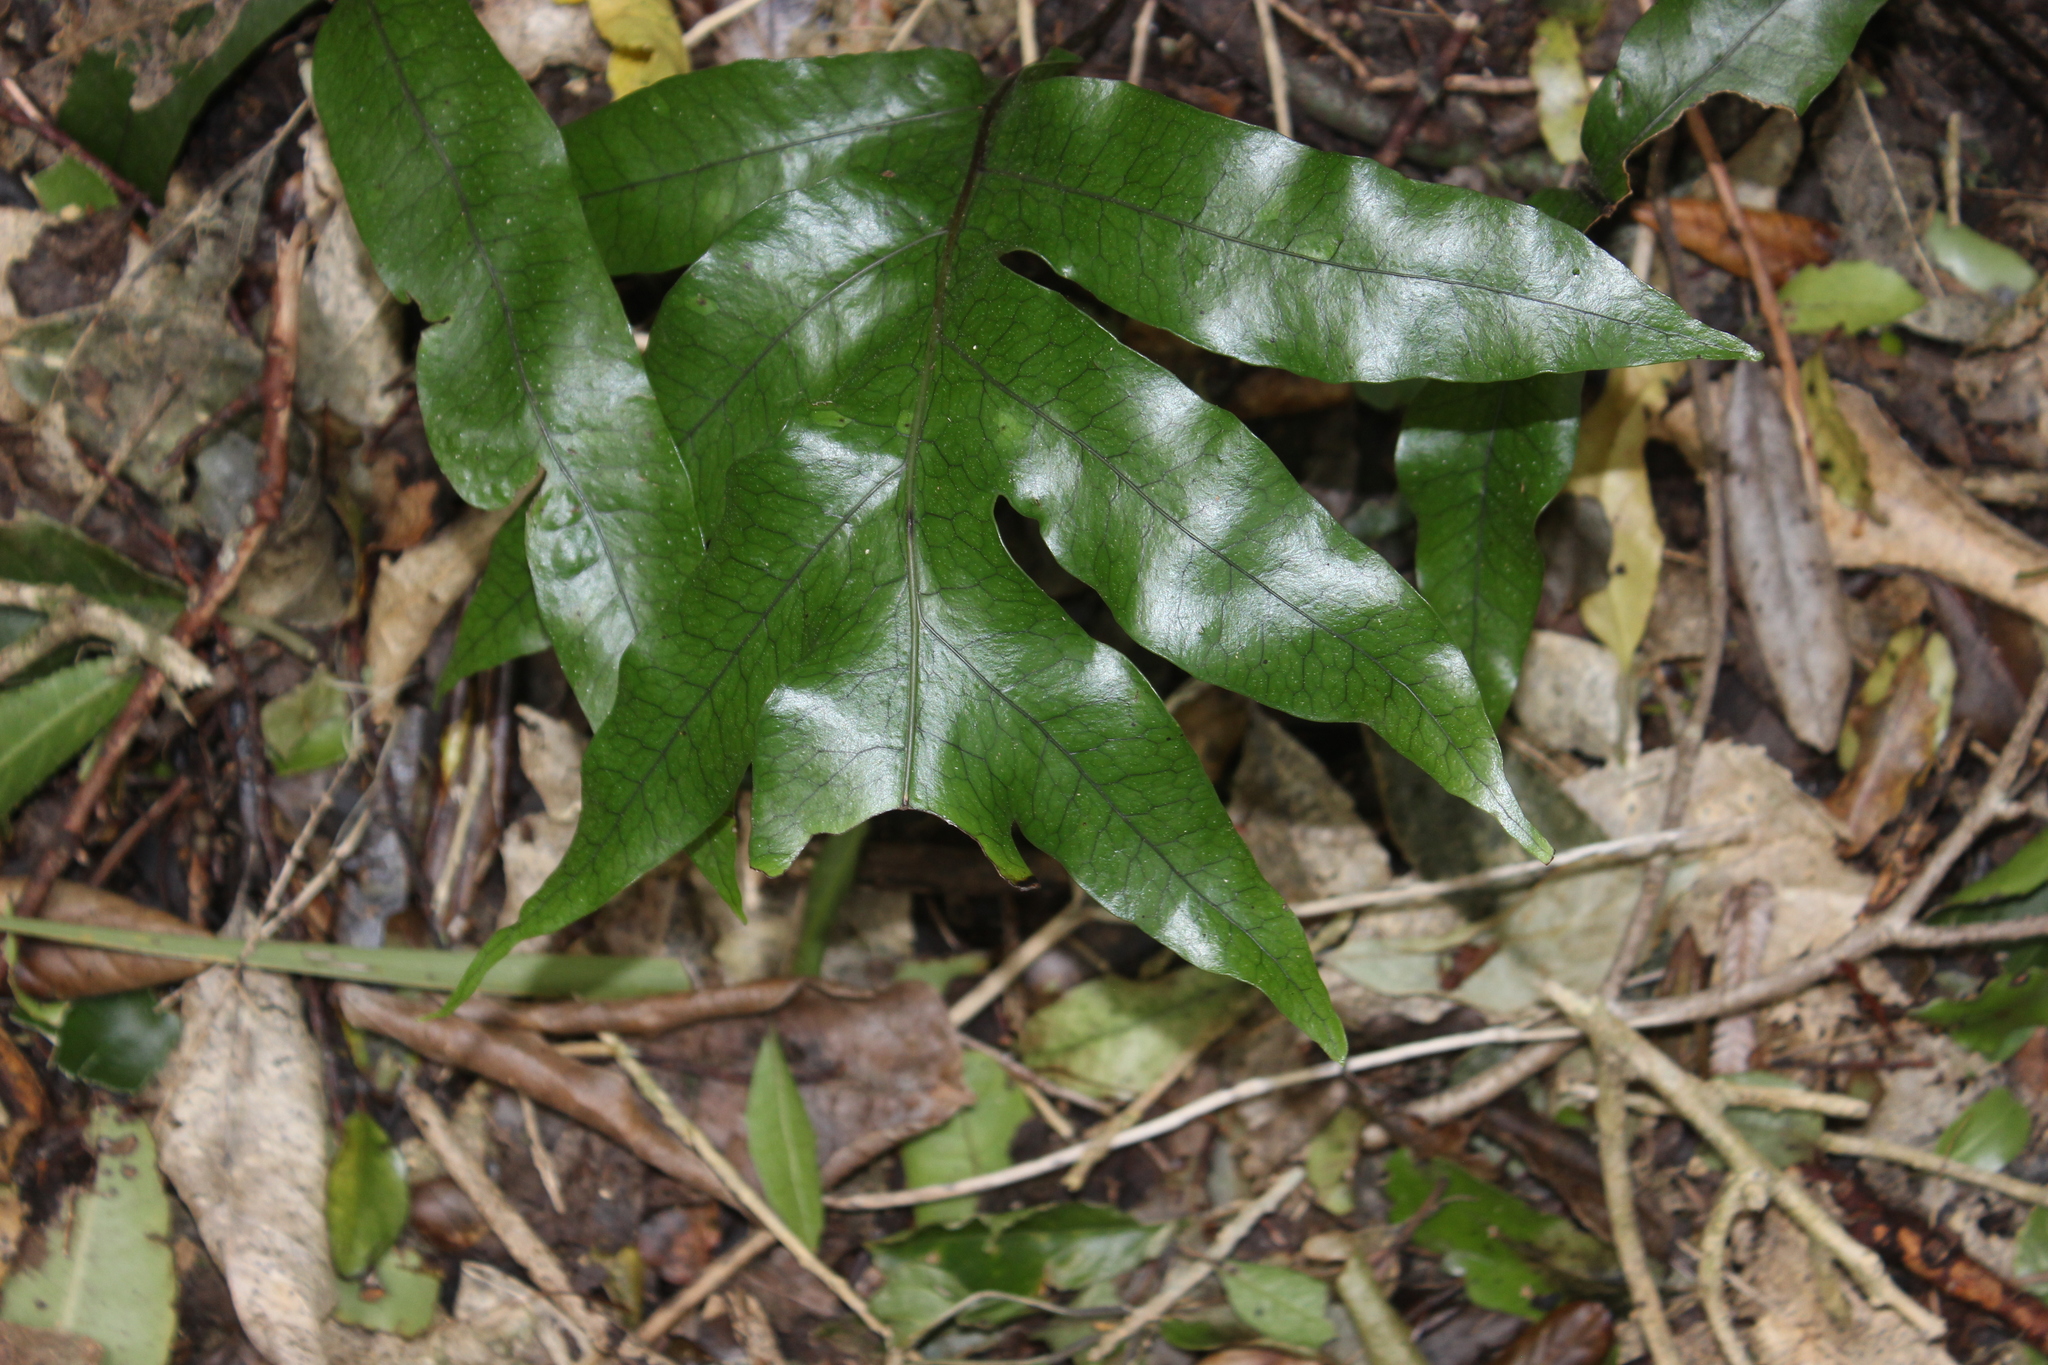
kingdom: Plantae
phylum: Tracheophyta
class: Polypodiopsida
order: Polypodiales
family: Polypodiaceae
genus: Lecanopteris
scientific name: Lecanopteris pustulata
